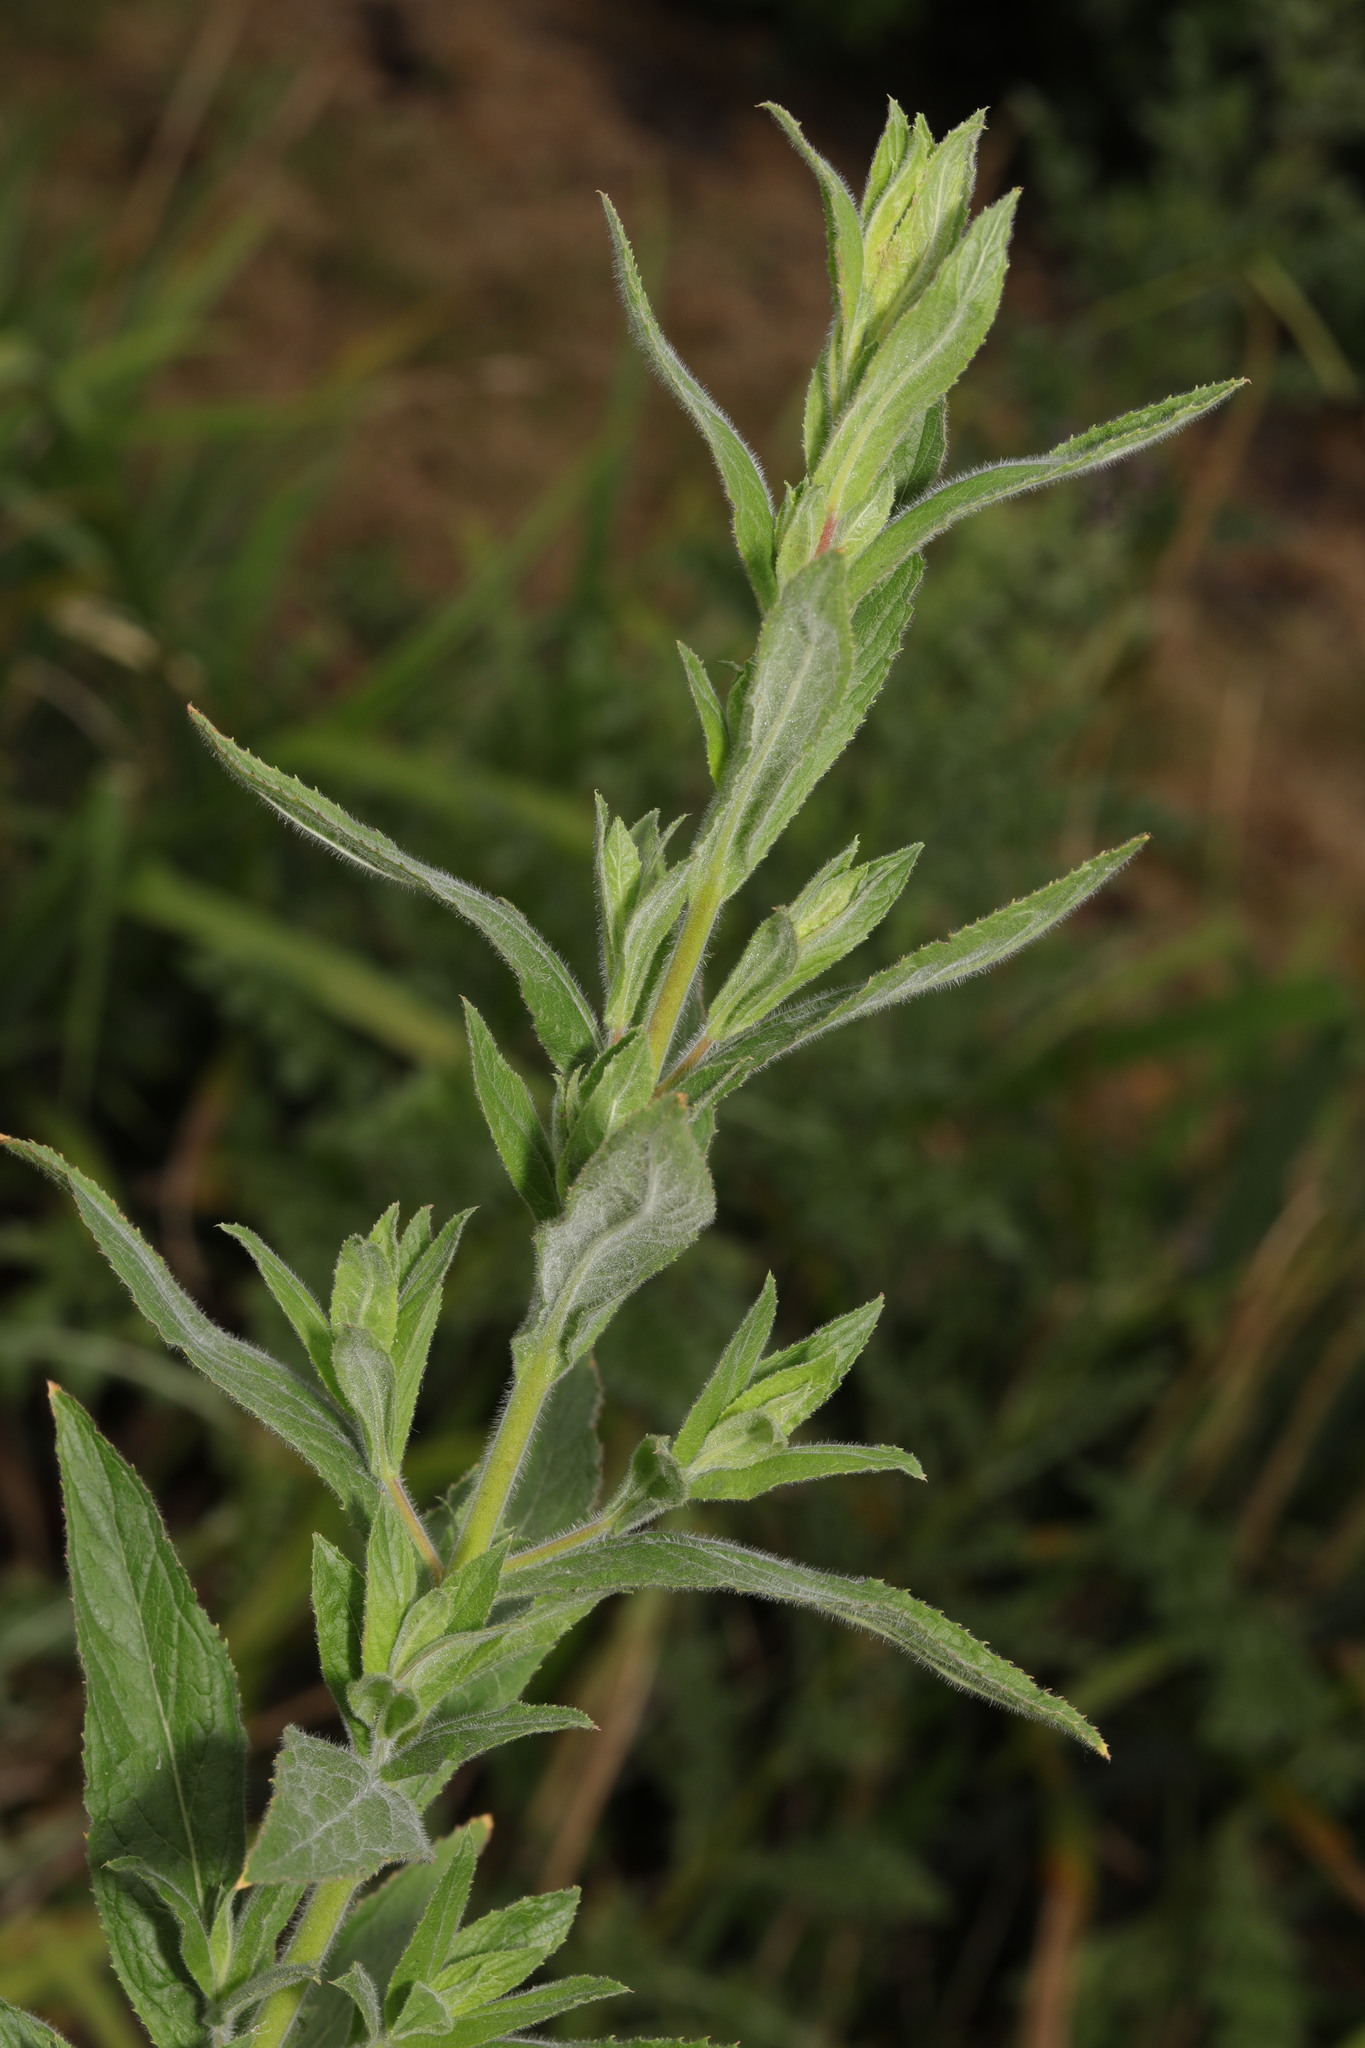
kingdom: Plantae
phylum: Tracheophyta
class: Magnoliopsida
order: Myrtales
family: Onagraceae
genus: Epilobium
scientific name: Epilobium hirsutum
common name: Great willowherb
